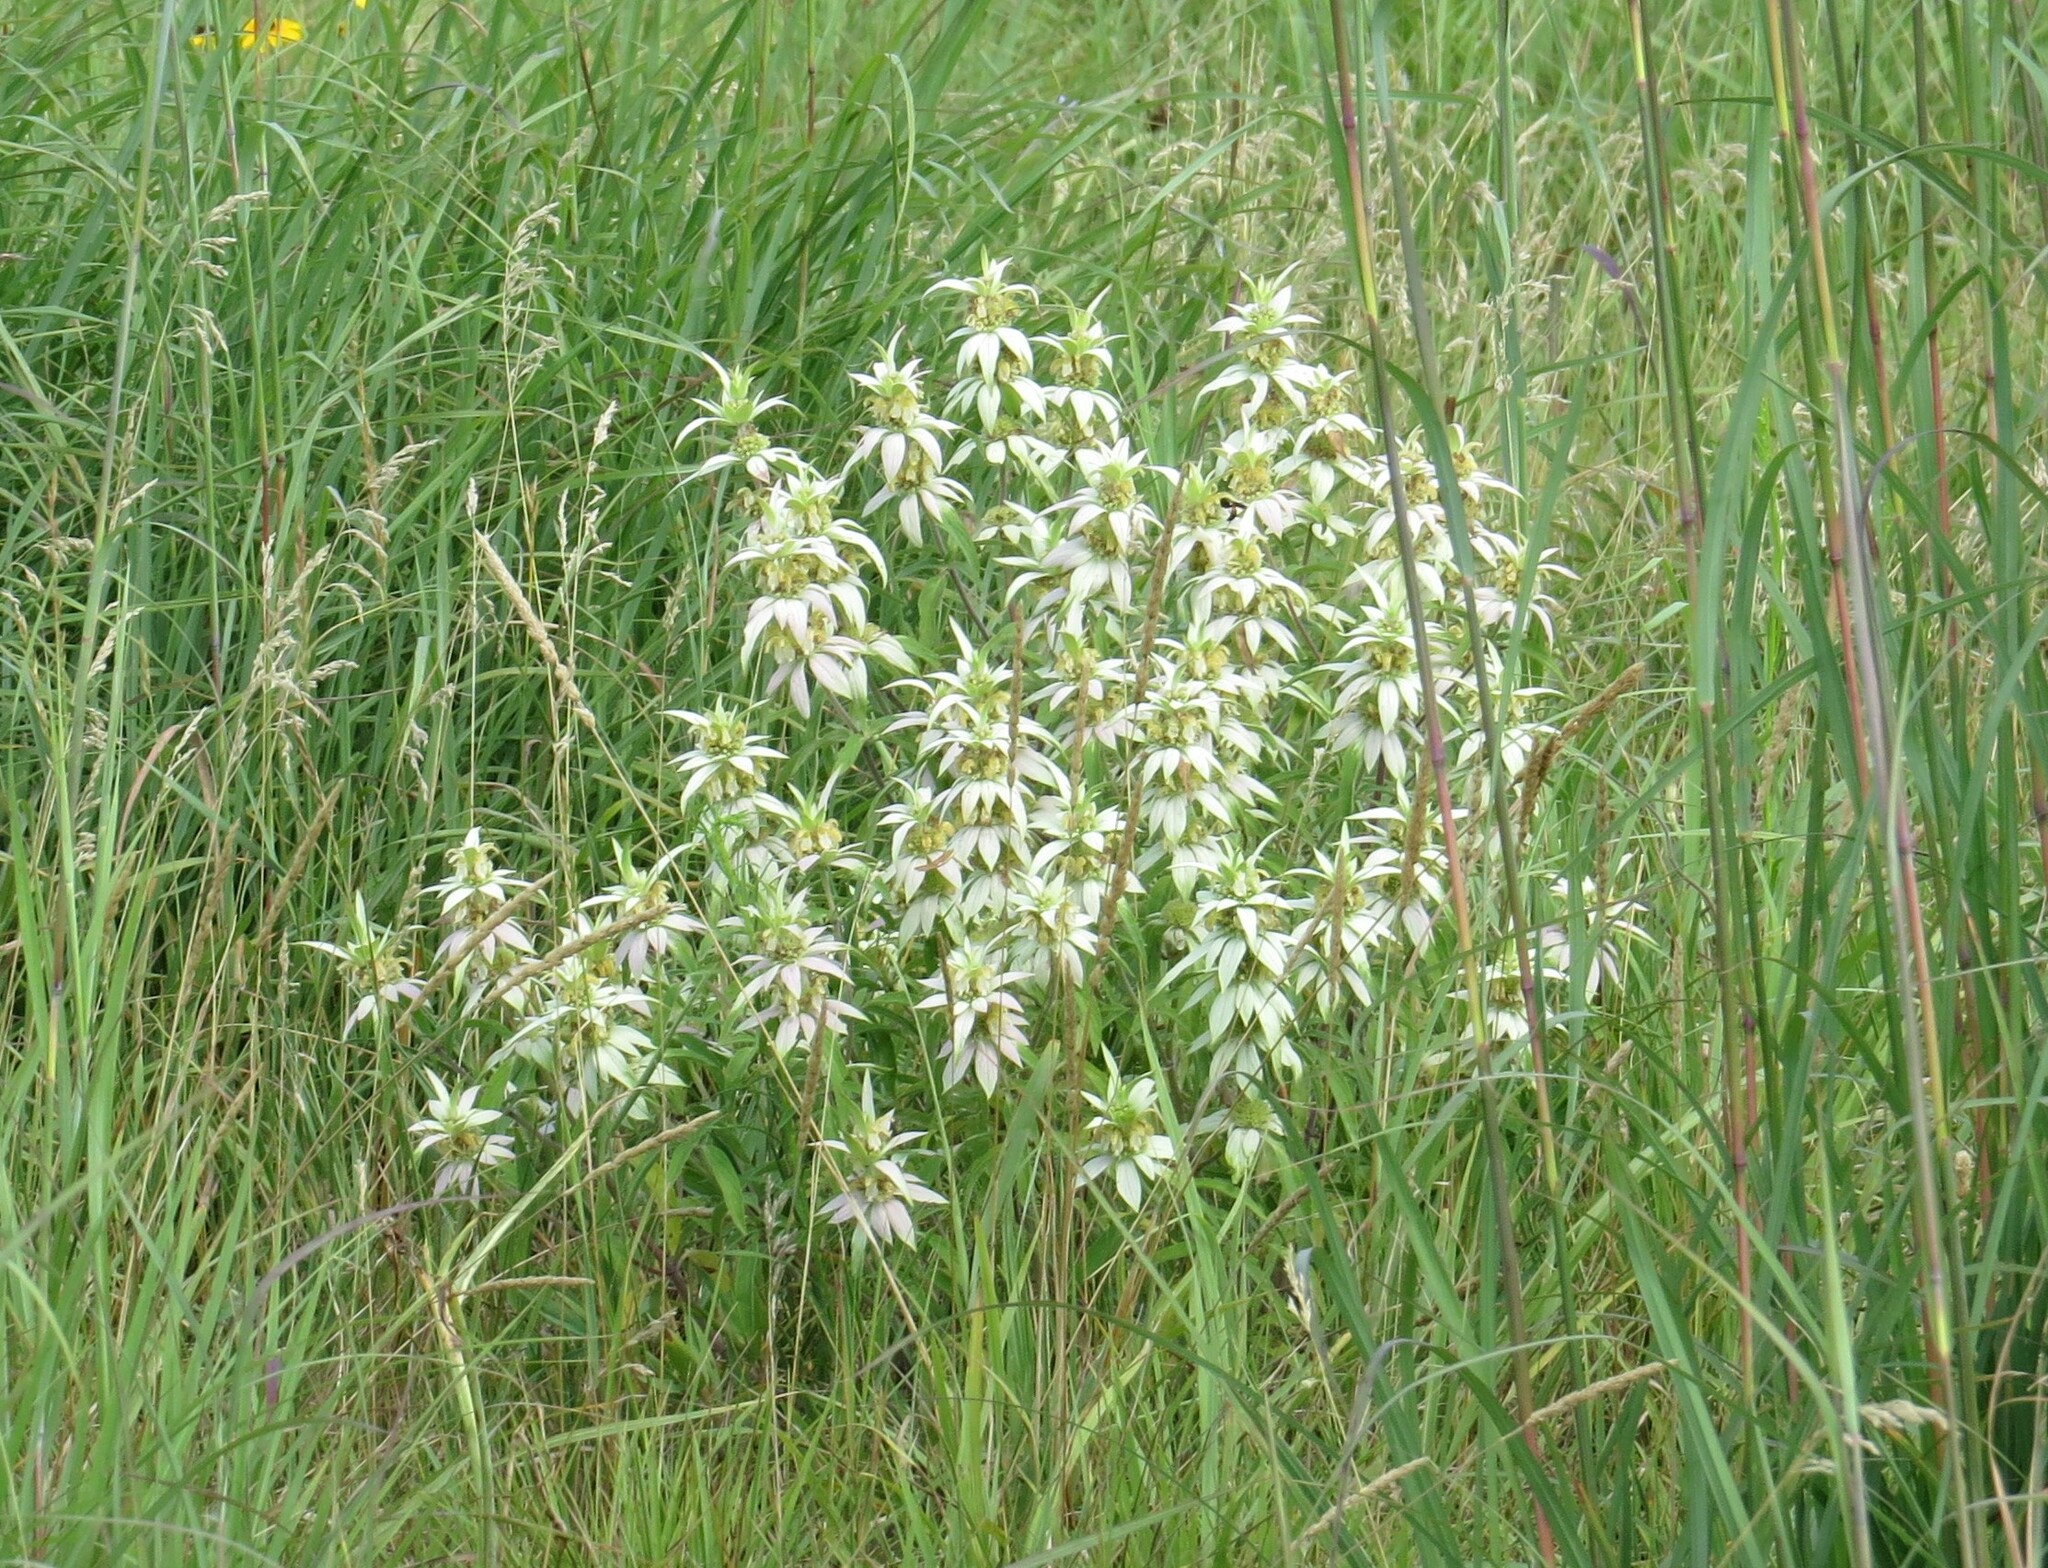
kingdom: Plantae
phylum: Tracheophyta
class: Magnoliopsida
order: Lamiales
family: Lamiaceae
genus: Monarda
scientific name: Monarda punctata
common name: Dotted monarda
